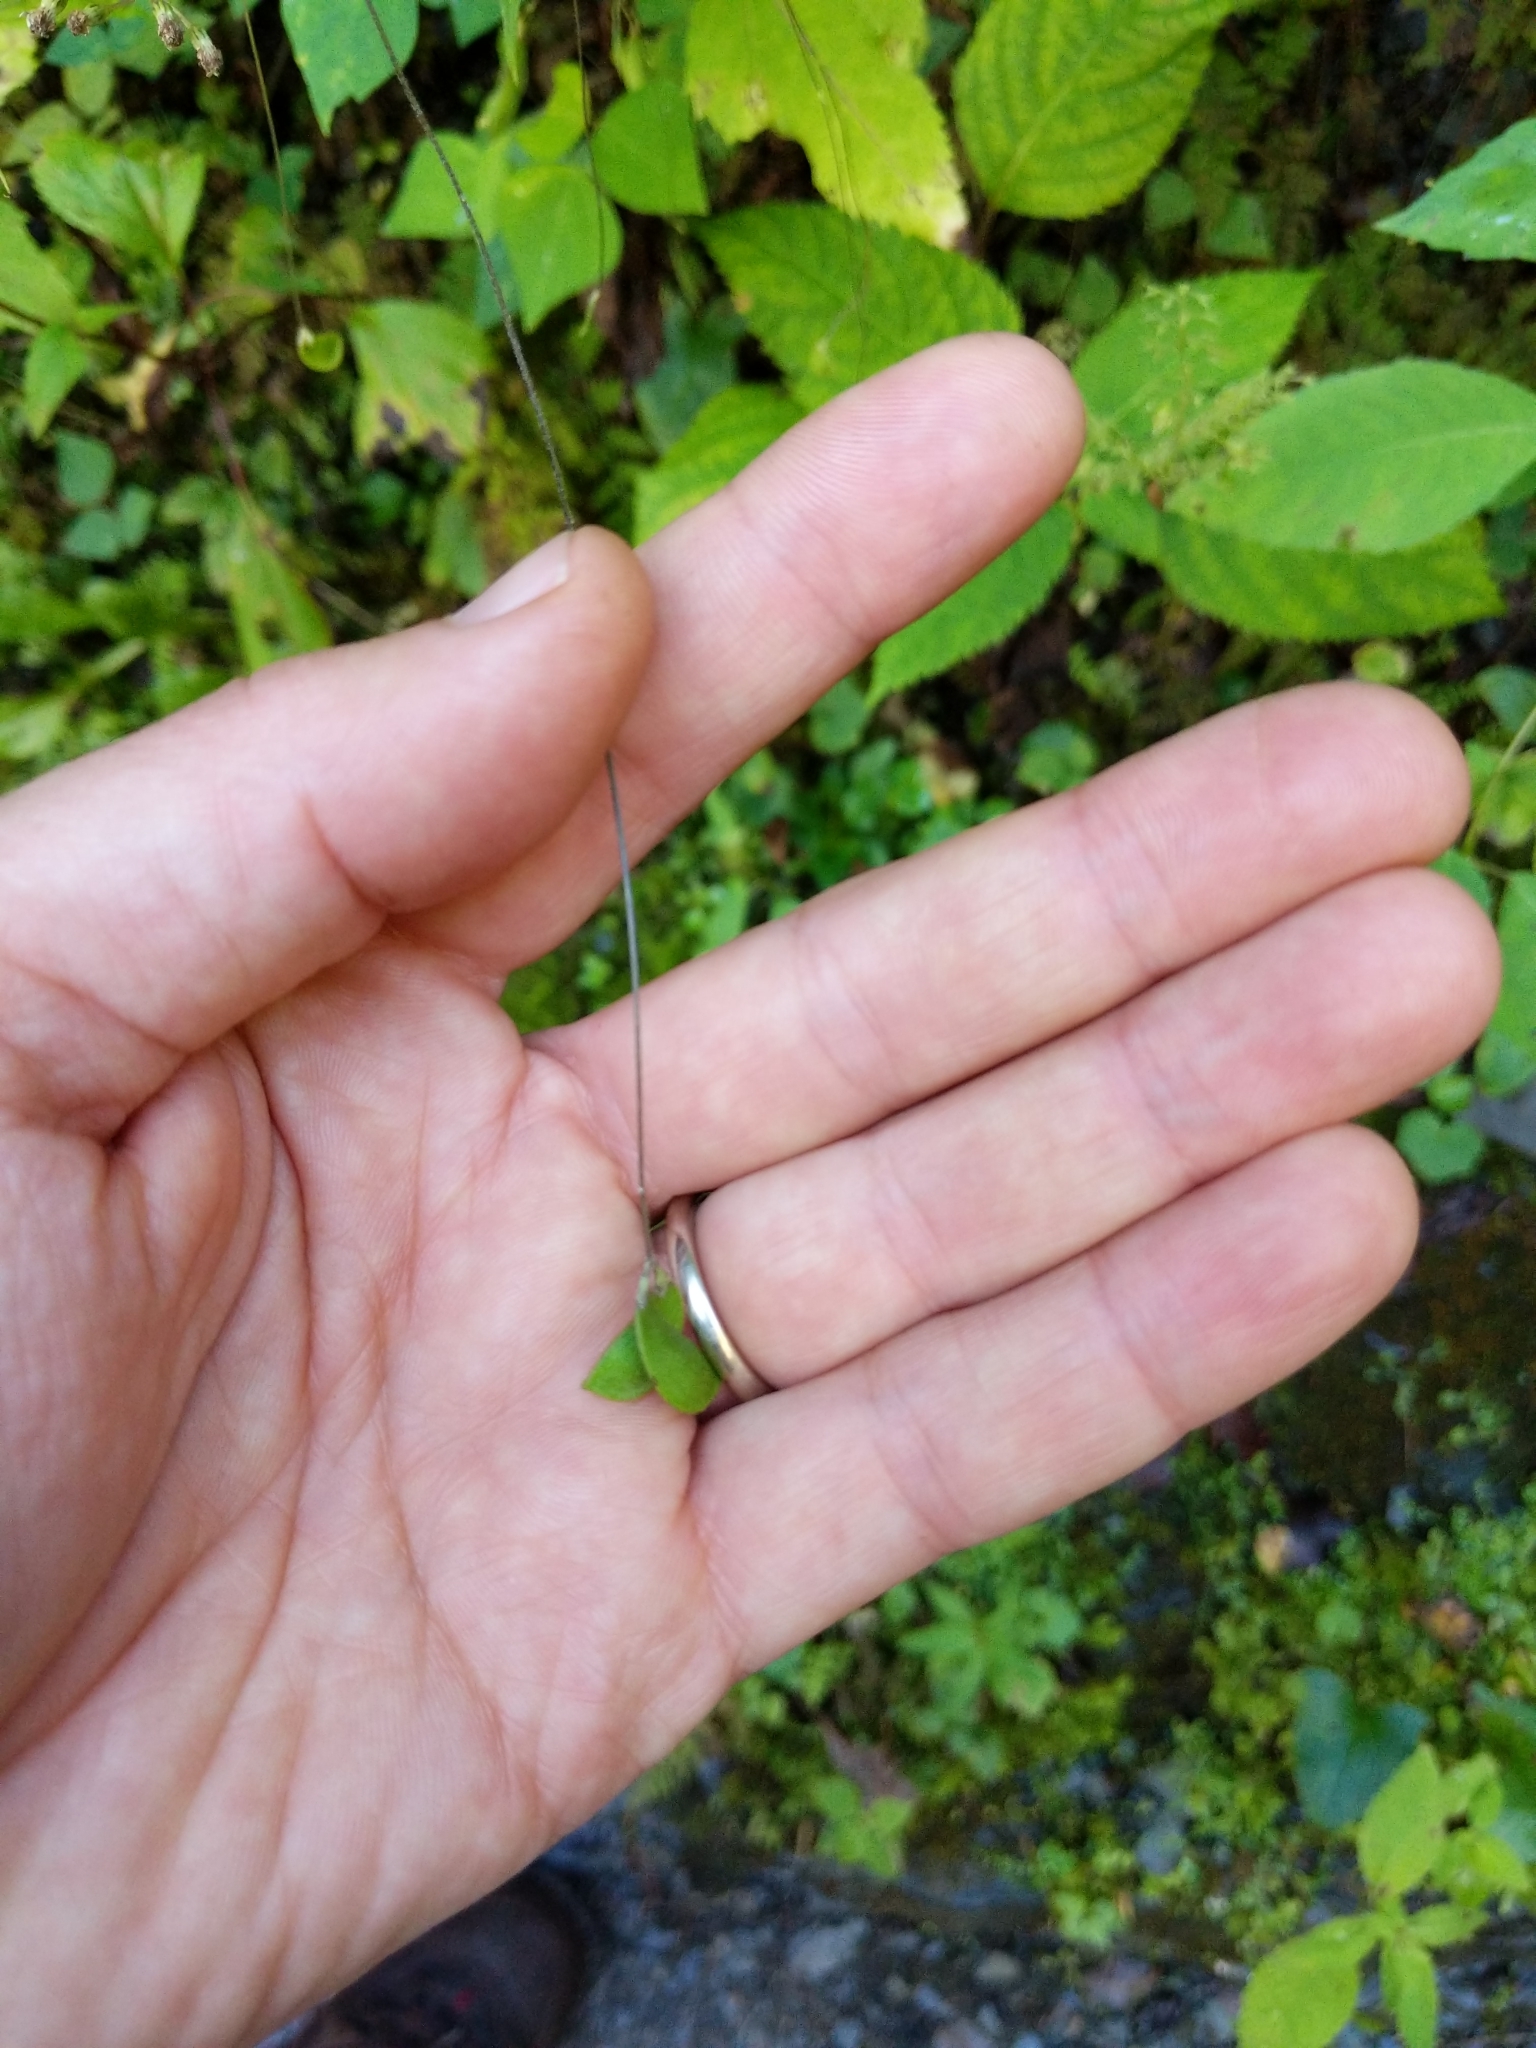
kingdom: Plantae
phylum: Tracheophyta
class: Magnoliopsida
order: Fabales
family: Fabaceae
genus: Amphicarpaea
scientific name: Amphicarpaea bracteata
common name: American hog peanut
